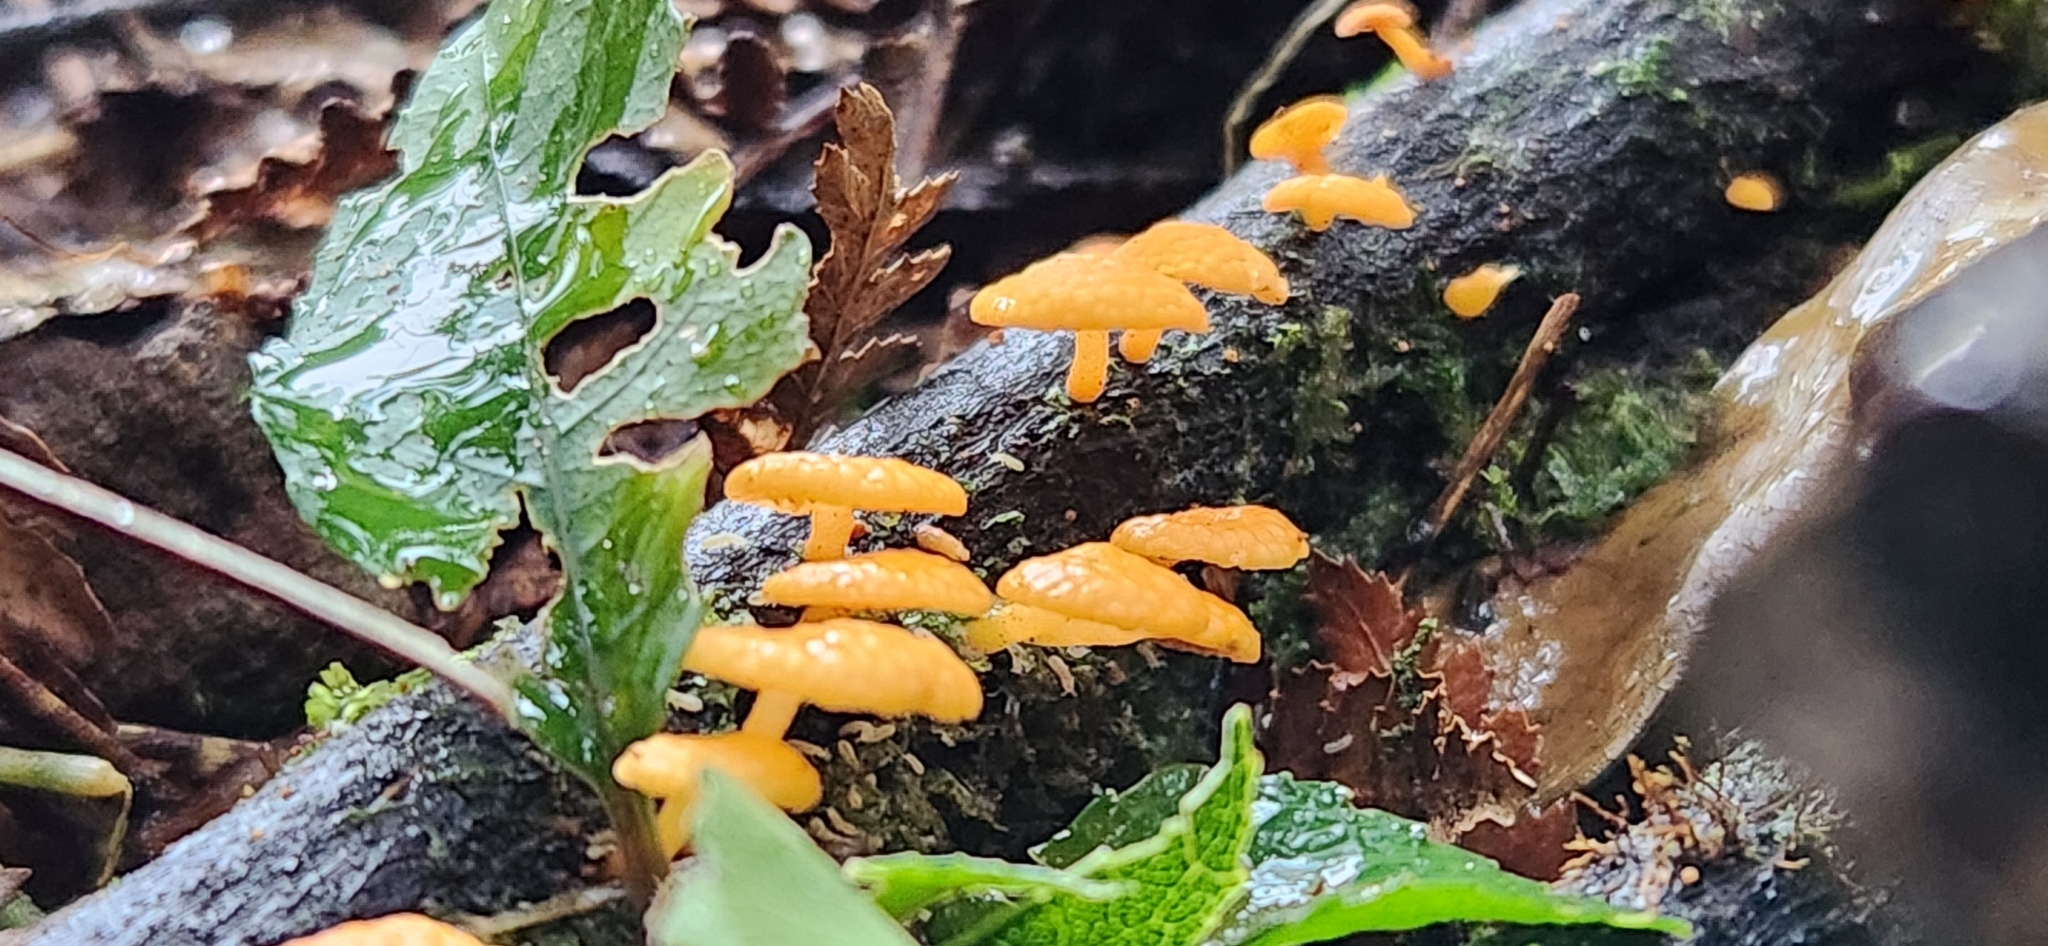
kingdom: Fungi
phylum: Basidiomycota
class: Agaricomycetes
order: Agaricales
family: Mycenaceae
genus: Favolaschia
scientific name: Favolaschia claudopus
